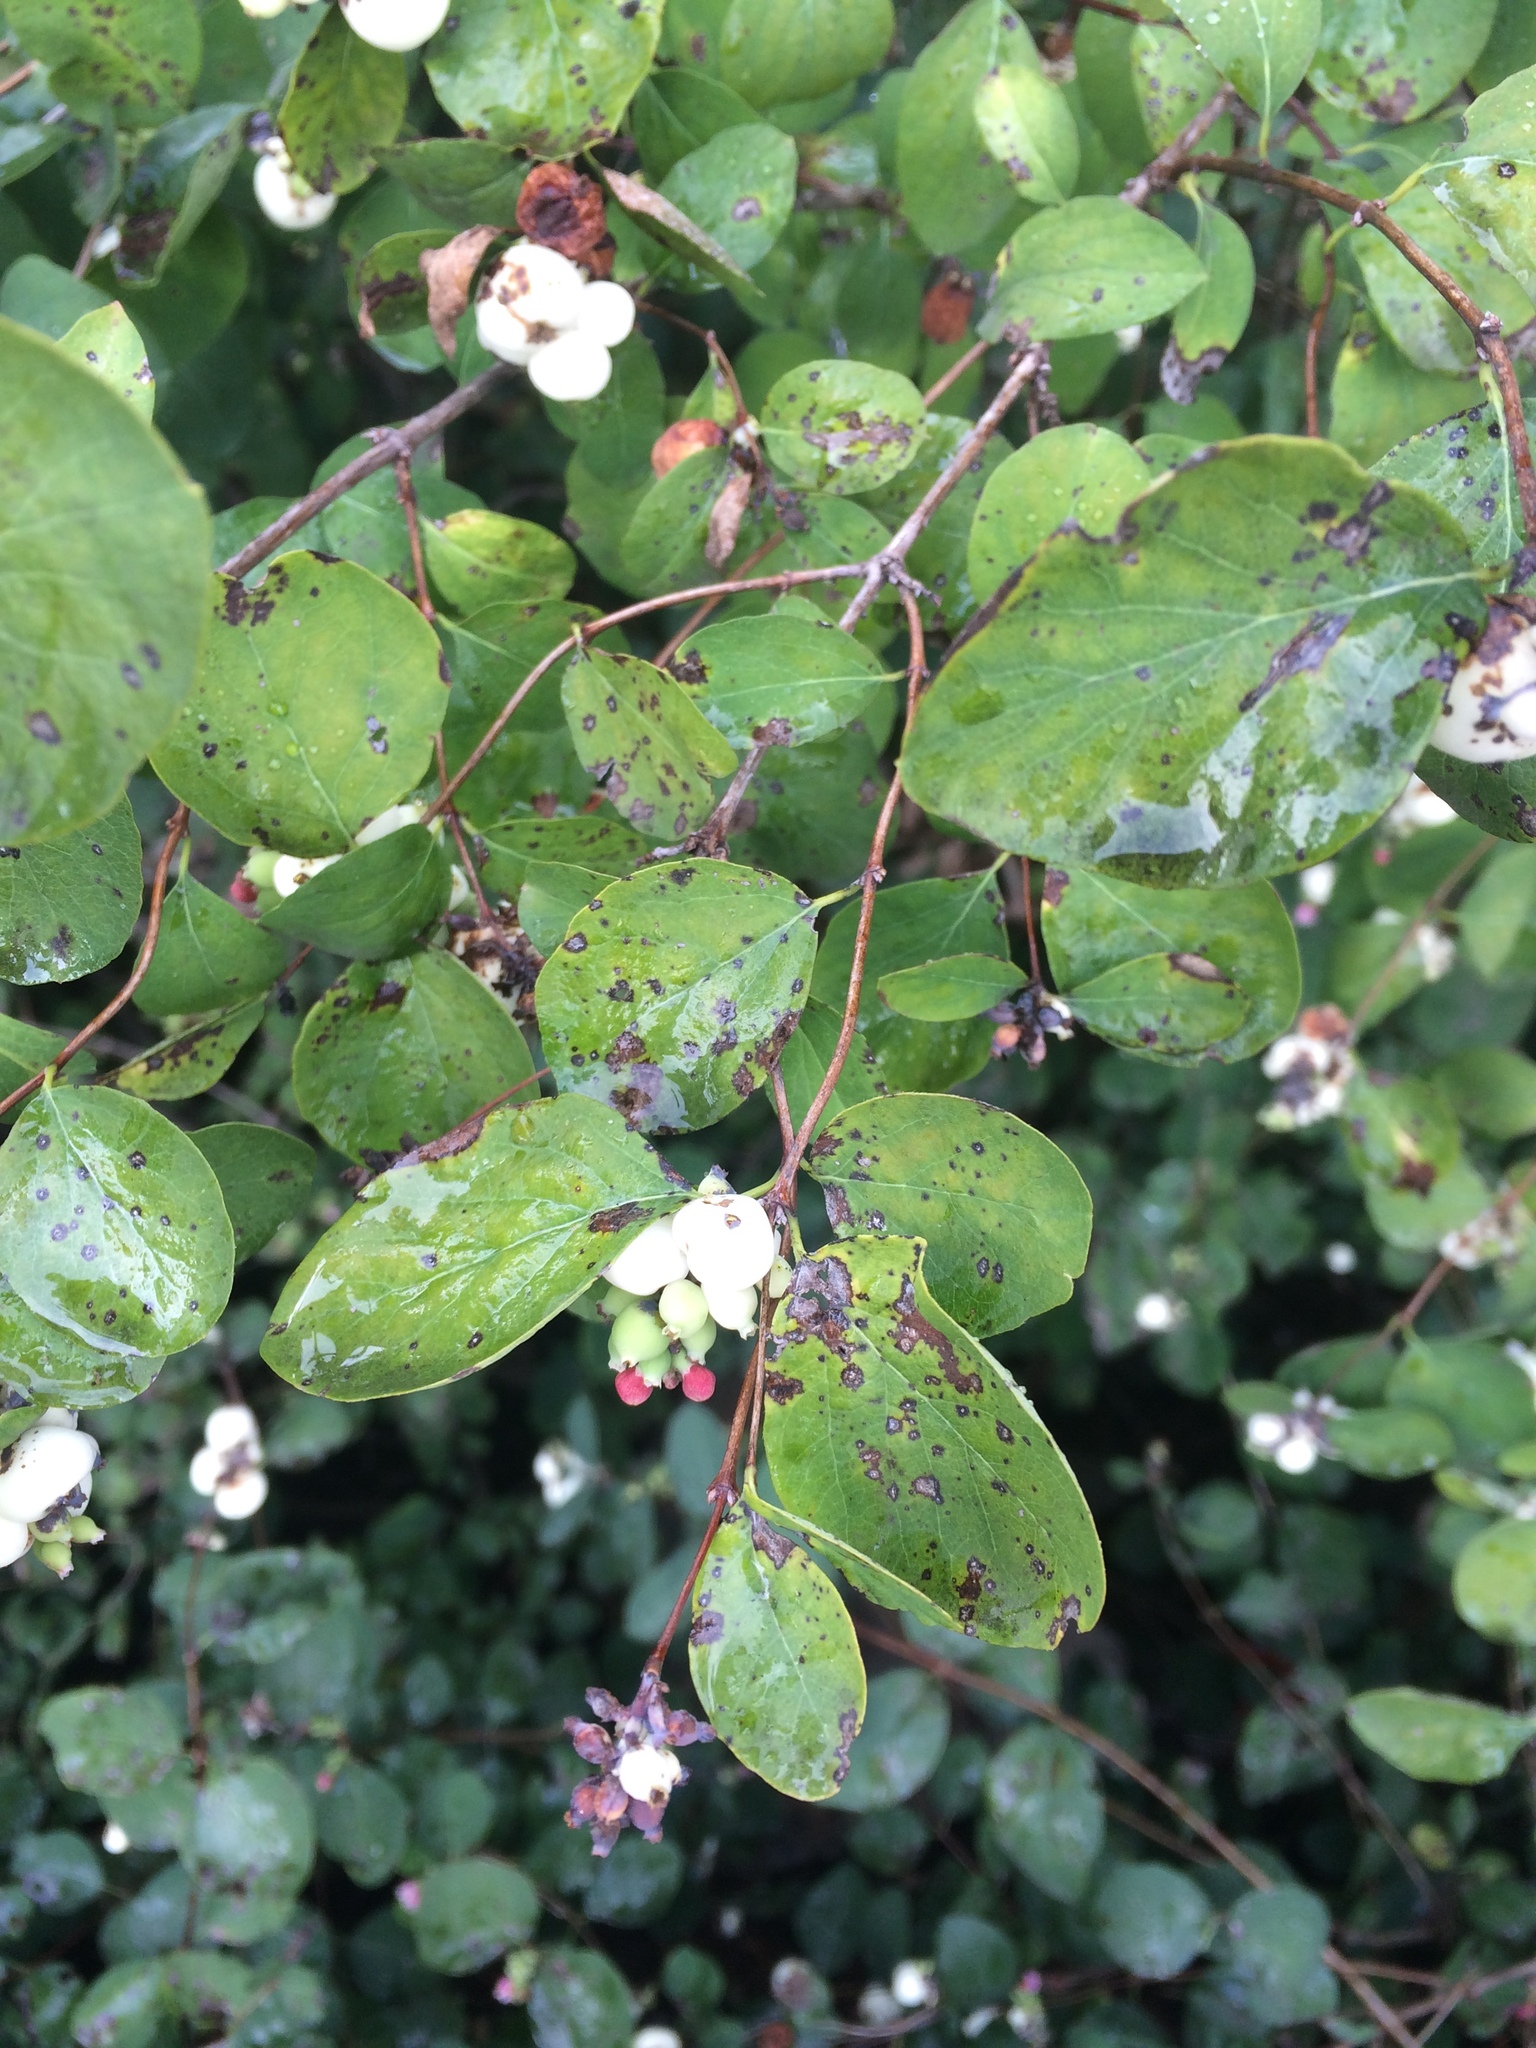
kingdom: Plantae
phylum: Tracheophyta
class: Magnoliopsida
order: Dipsacales
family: Caprifoliaceae
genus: Symphoricarpos
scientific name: Symphoricarpos albus
